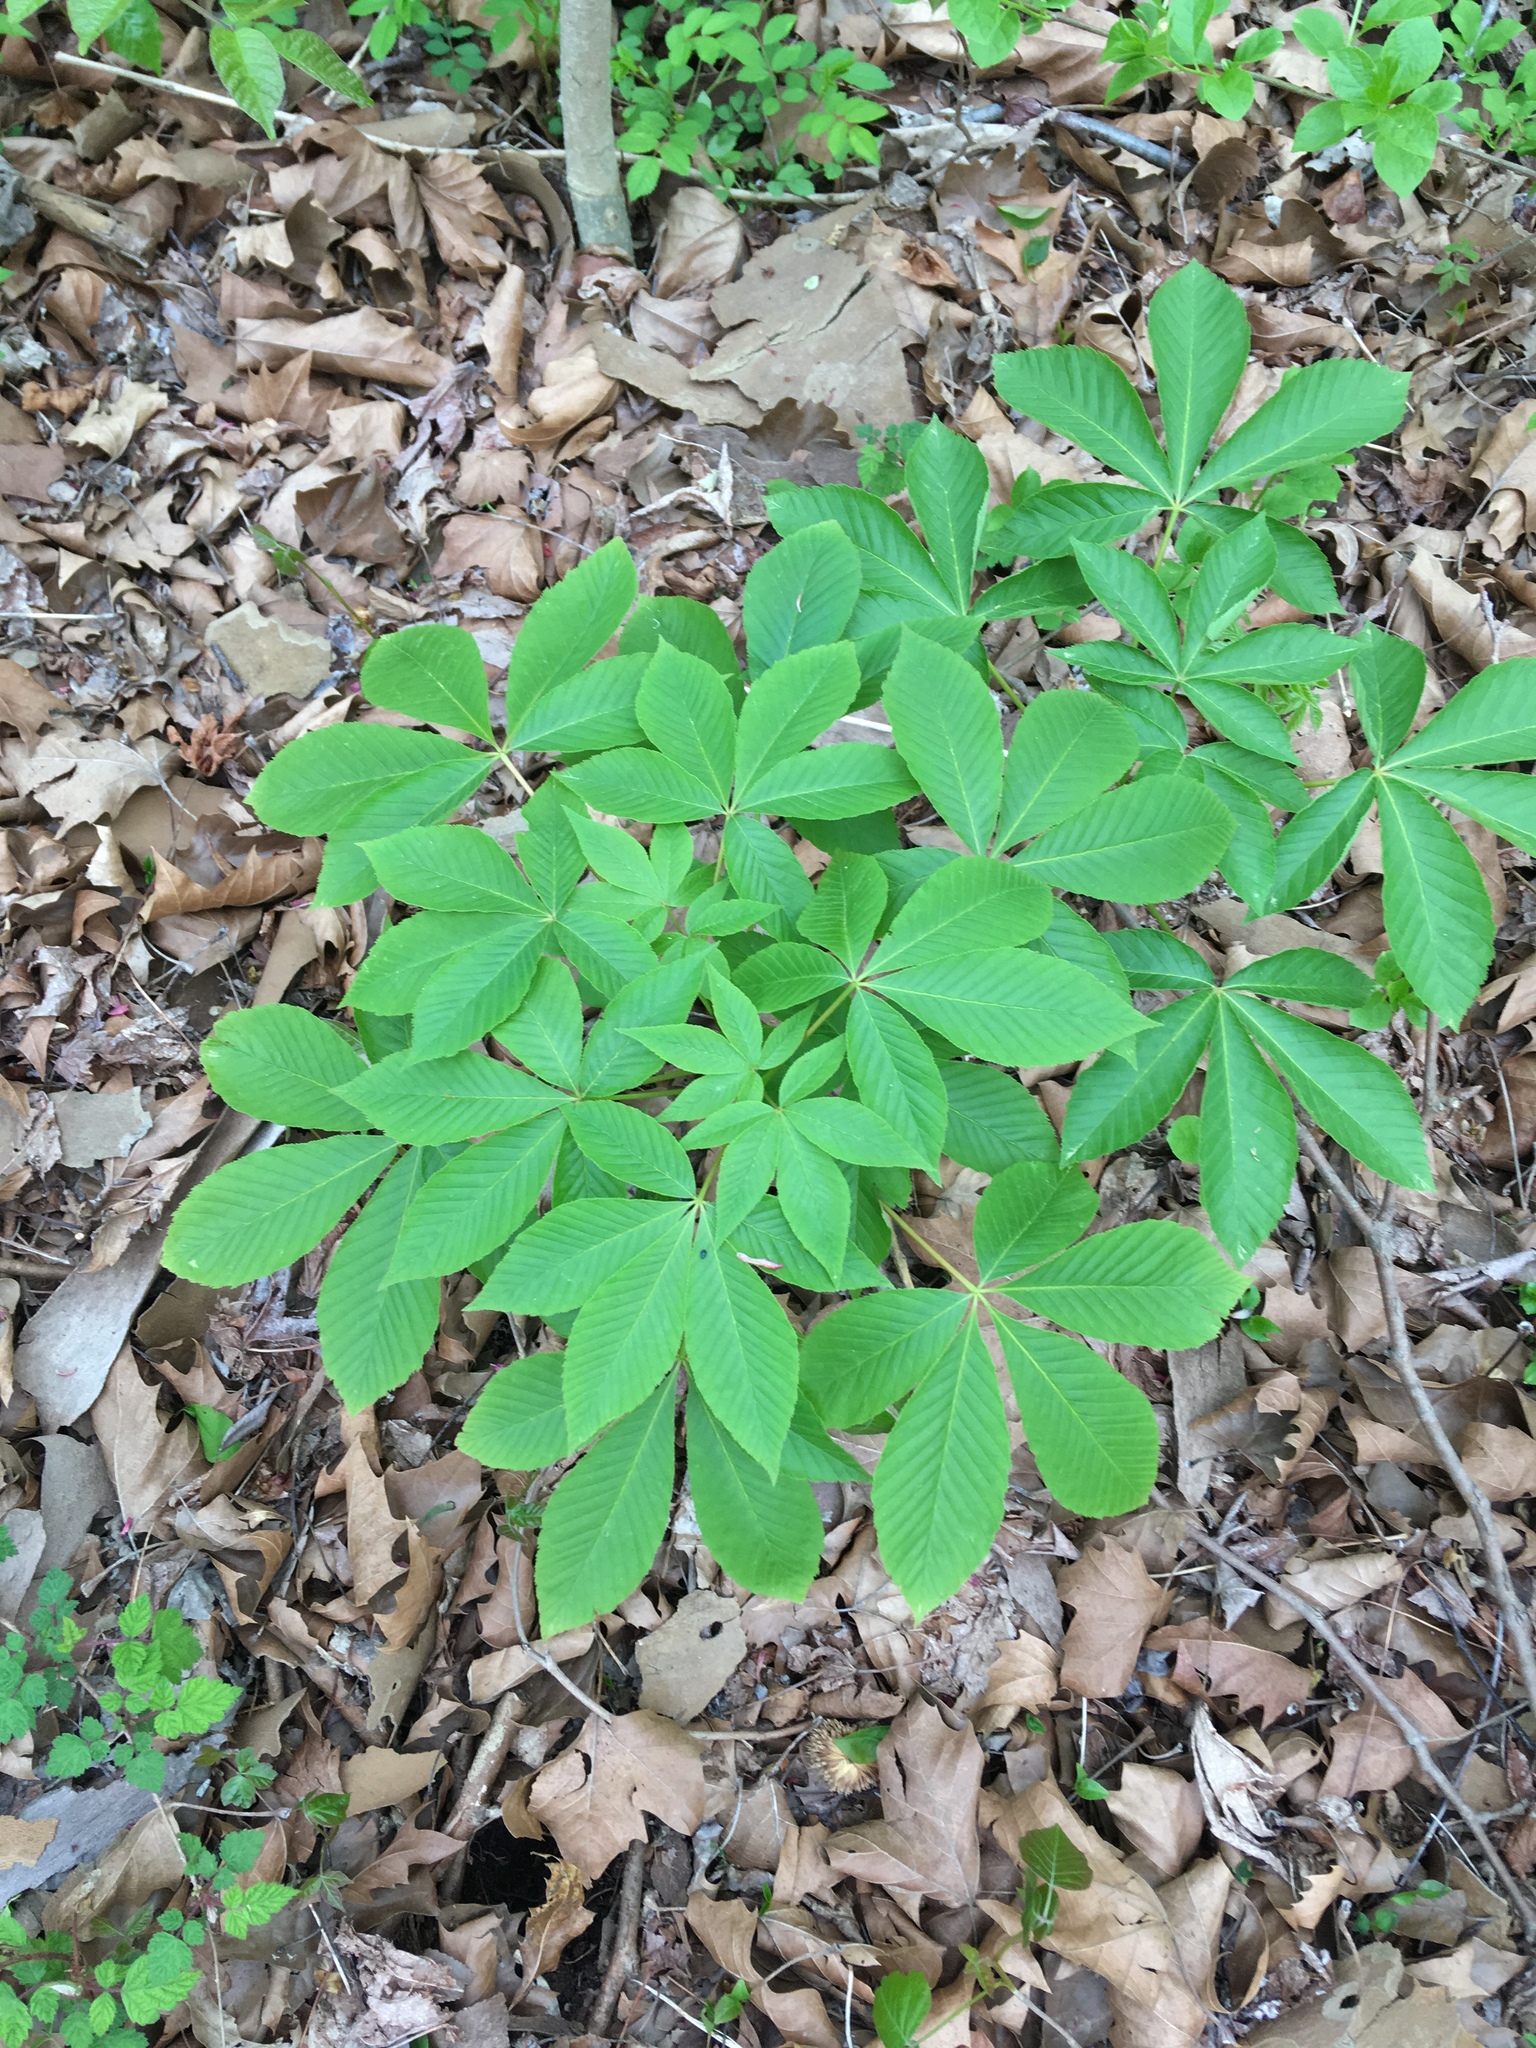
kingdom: Plantae
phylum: Tracheophyta
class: Magnoliopsida
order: Sapindales
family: Sapindaceae
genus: Aesculus
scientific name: Aesculus glabra
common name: Ohio buckeye
